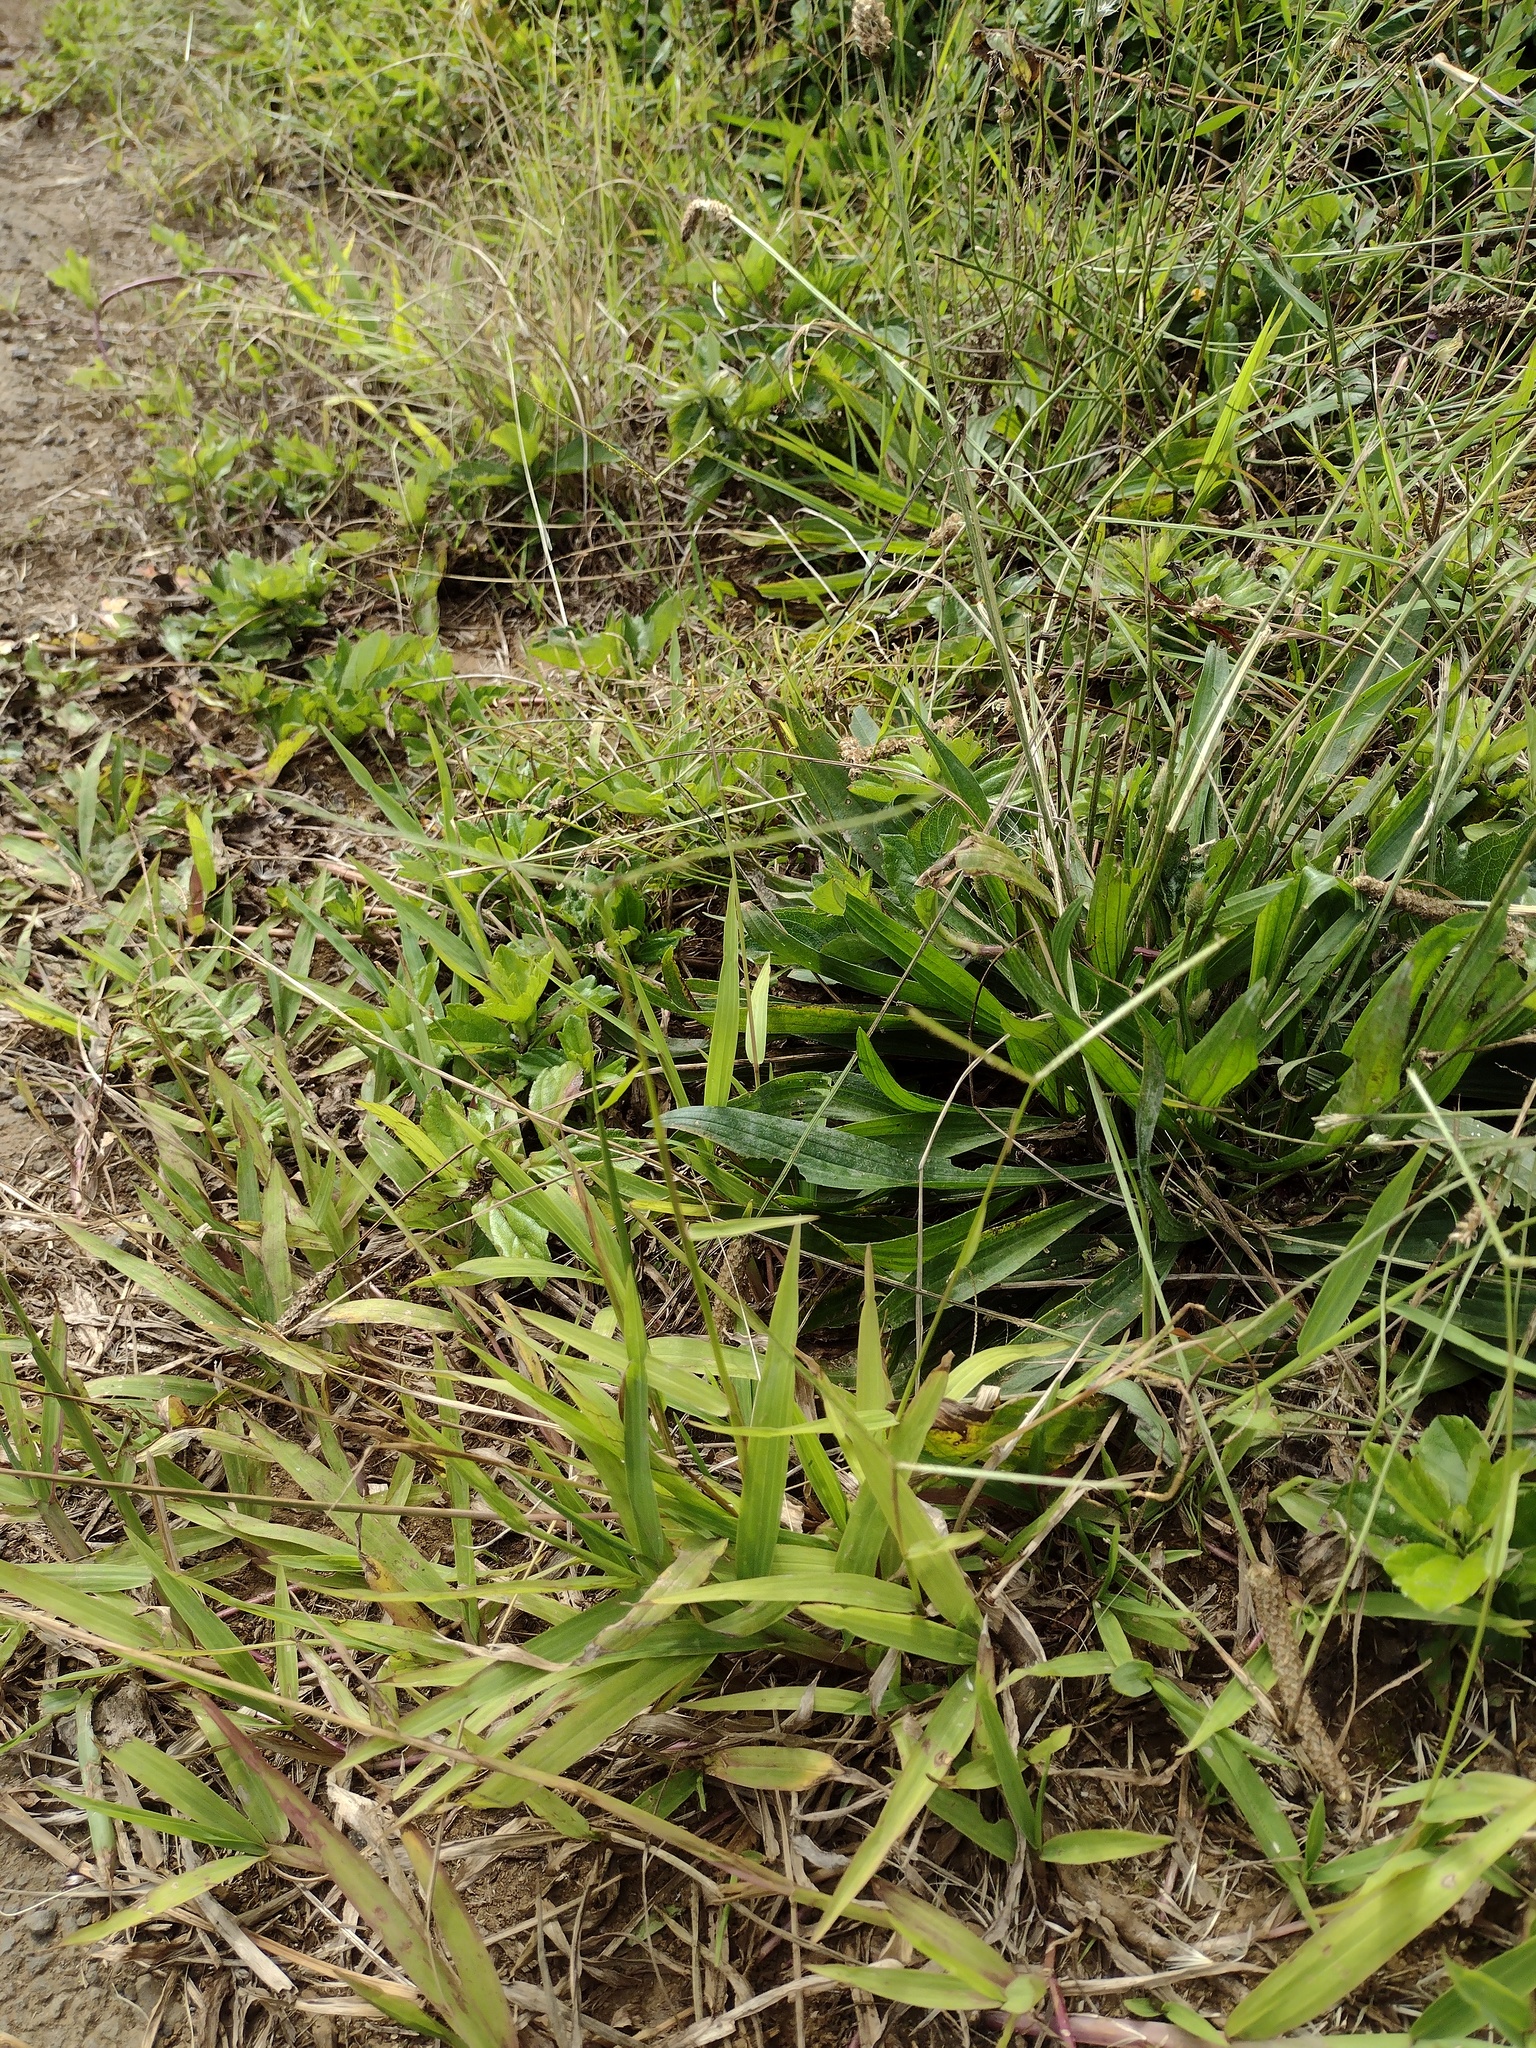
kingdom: Plantae
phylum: Tracheophyta
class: Magnoliopsida
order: Lamiales
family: Plantaginaceae
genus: Plantago
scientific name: Plantago lanceolata
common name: Ribwort plantain
